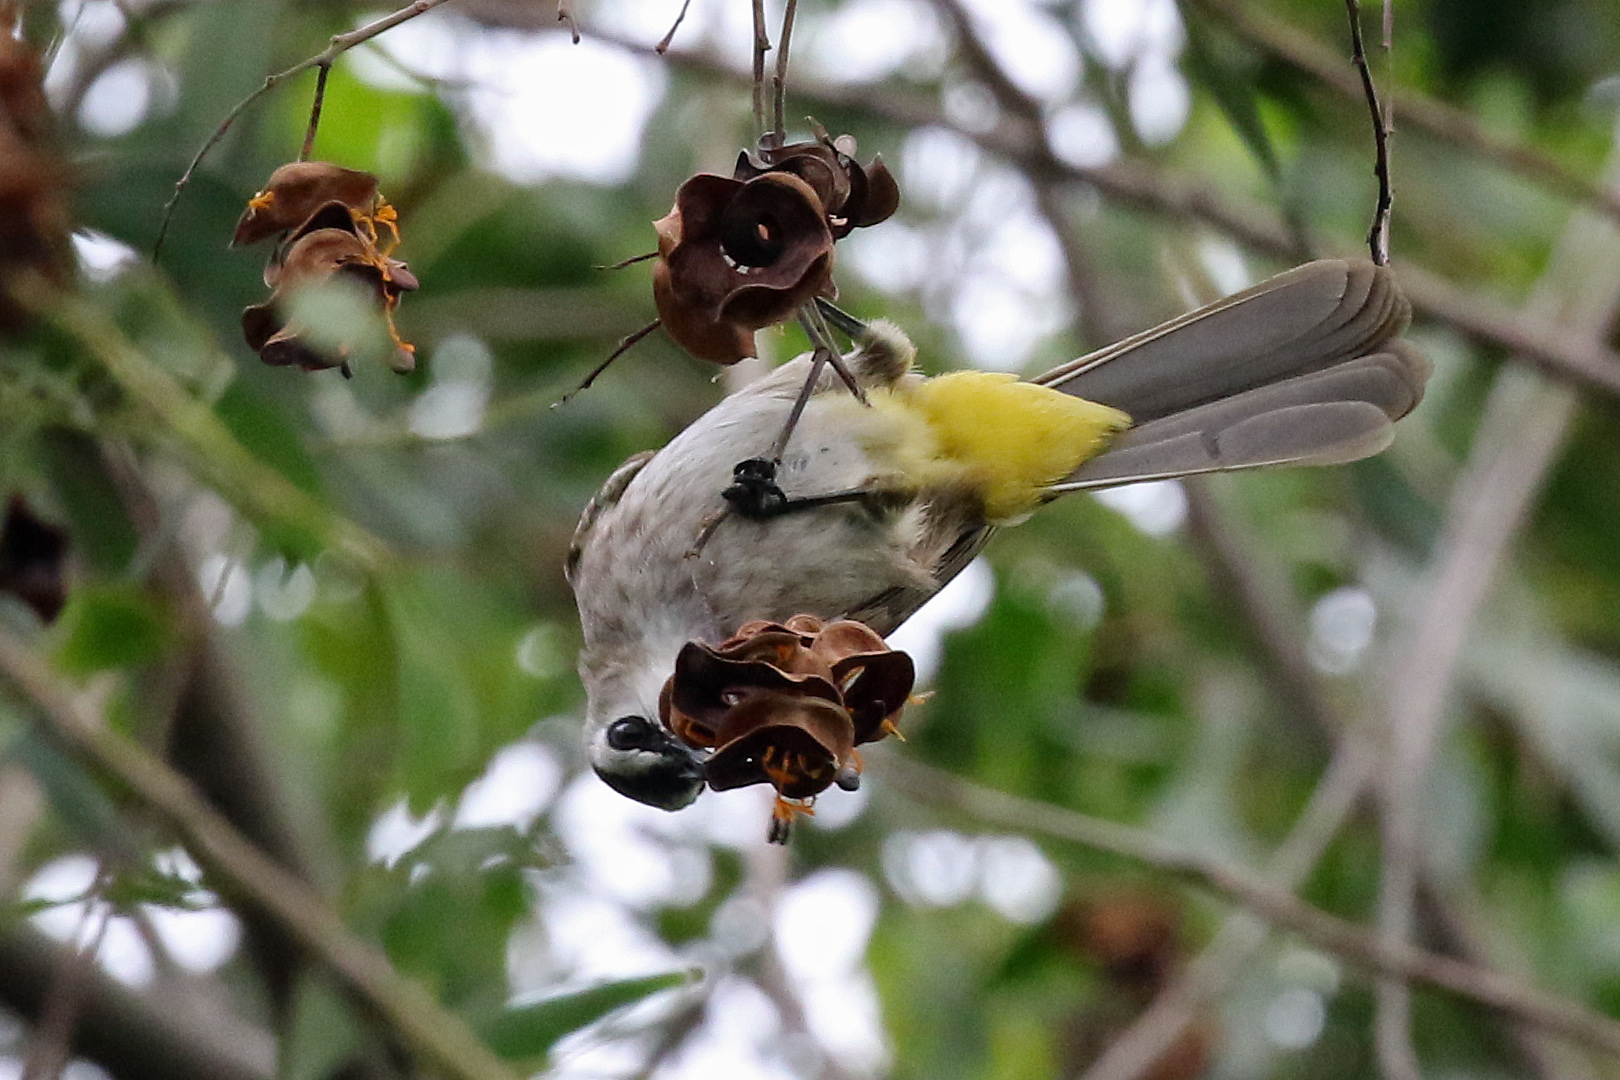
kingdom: Animalia
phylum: Chordata
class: Aves
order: Passeriformes
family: Pycnonotidae
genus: Pycnonotus
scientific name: Pycnonotus goiavier
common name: Yellow-vented bulbul
